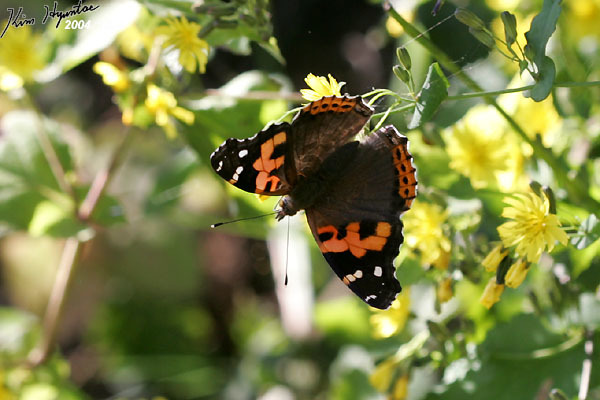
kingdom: Animalia
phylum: Arthropoda
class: Insecta
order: Lepidoptera
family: Nymphalidae
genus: Vanessa
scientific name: Vanessa indica
